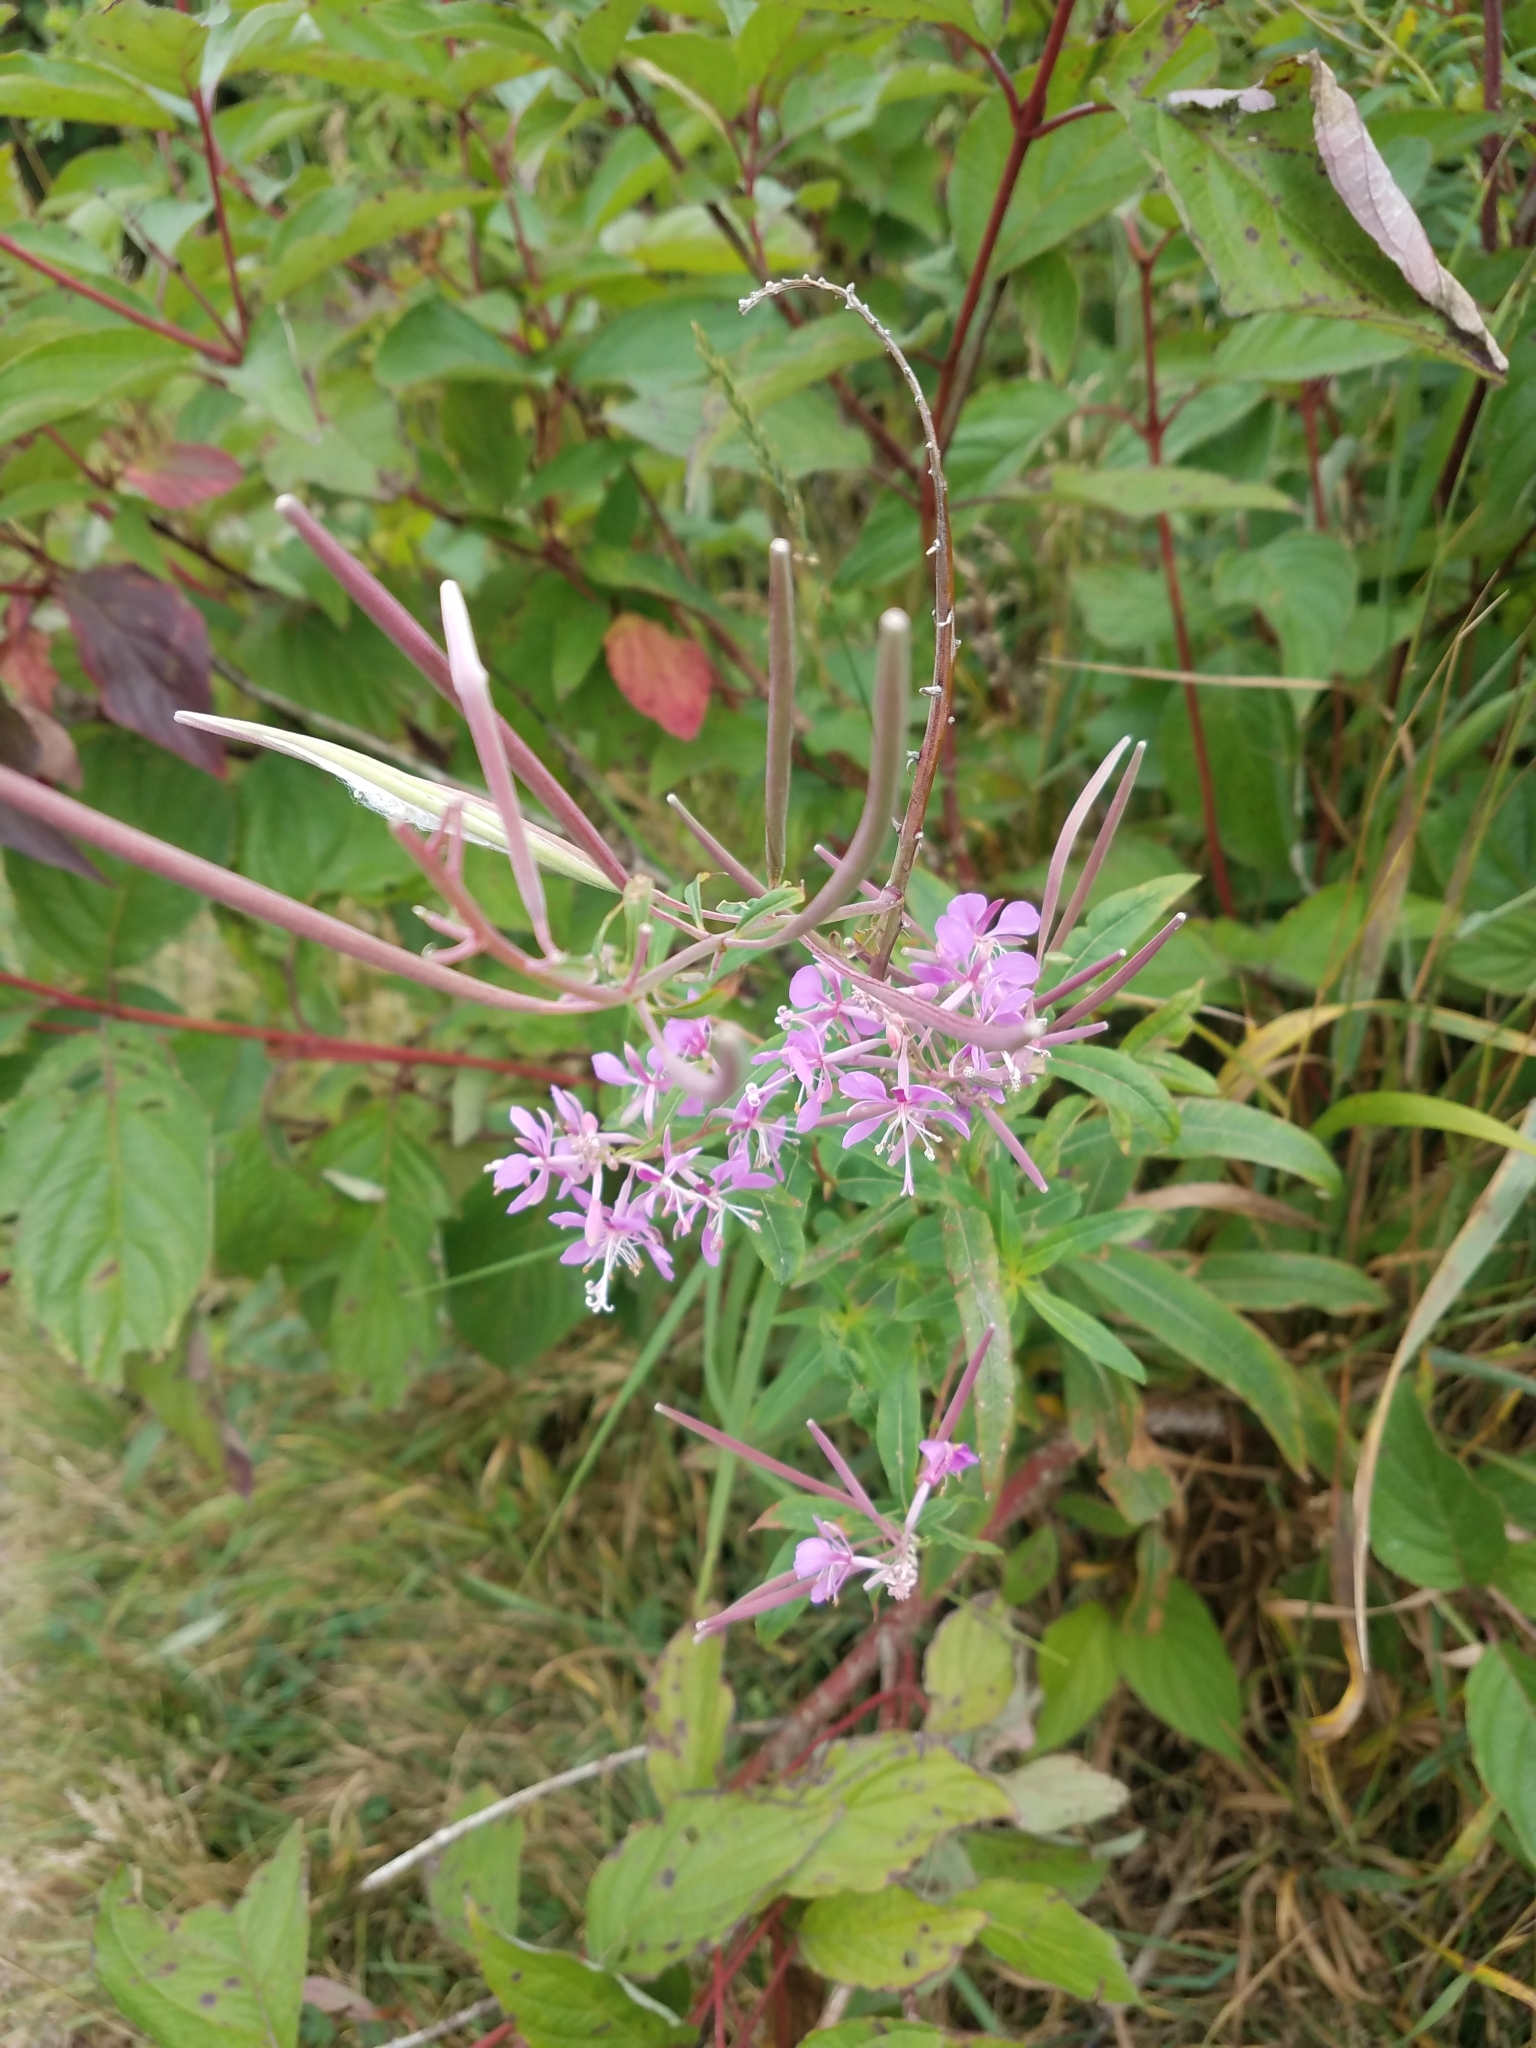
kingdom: Plantae
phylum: Tracheophyta
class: Magnoliopsida
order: Myrtales
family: Onagraceae
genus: Chamaenerion
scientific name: Chamaenerion angustifolium
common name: Fireweed
